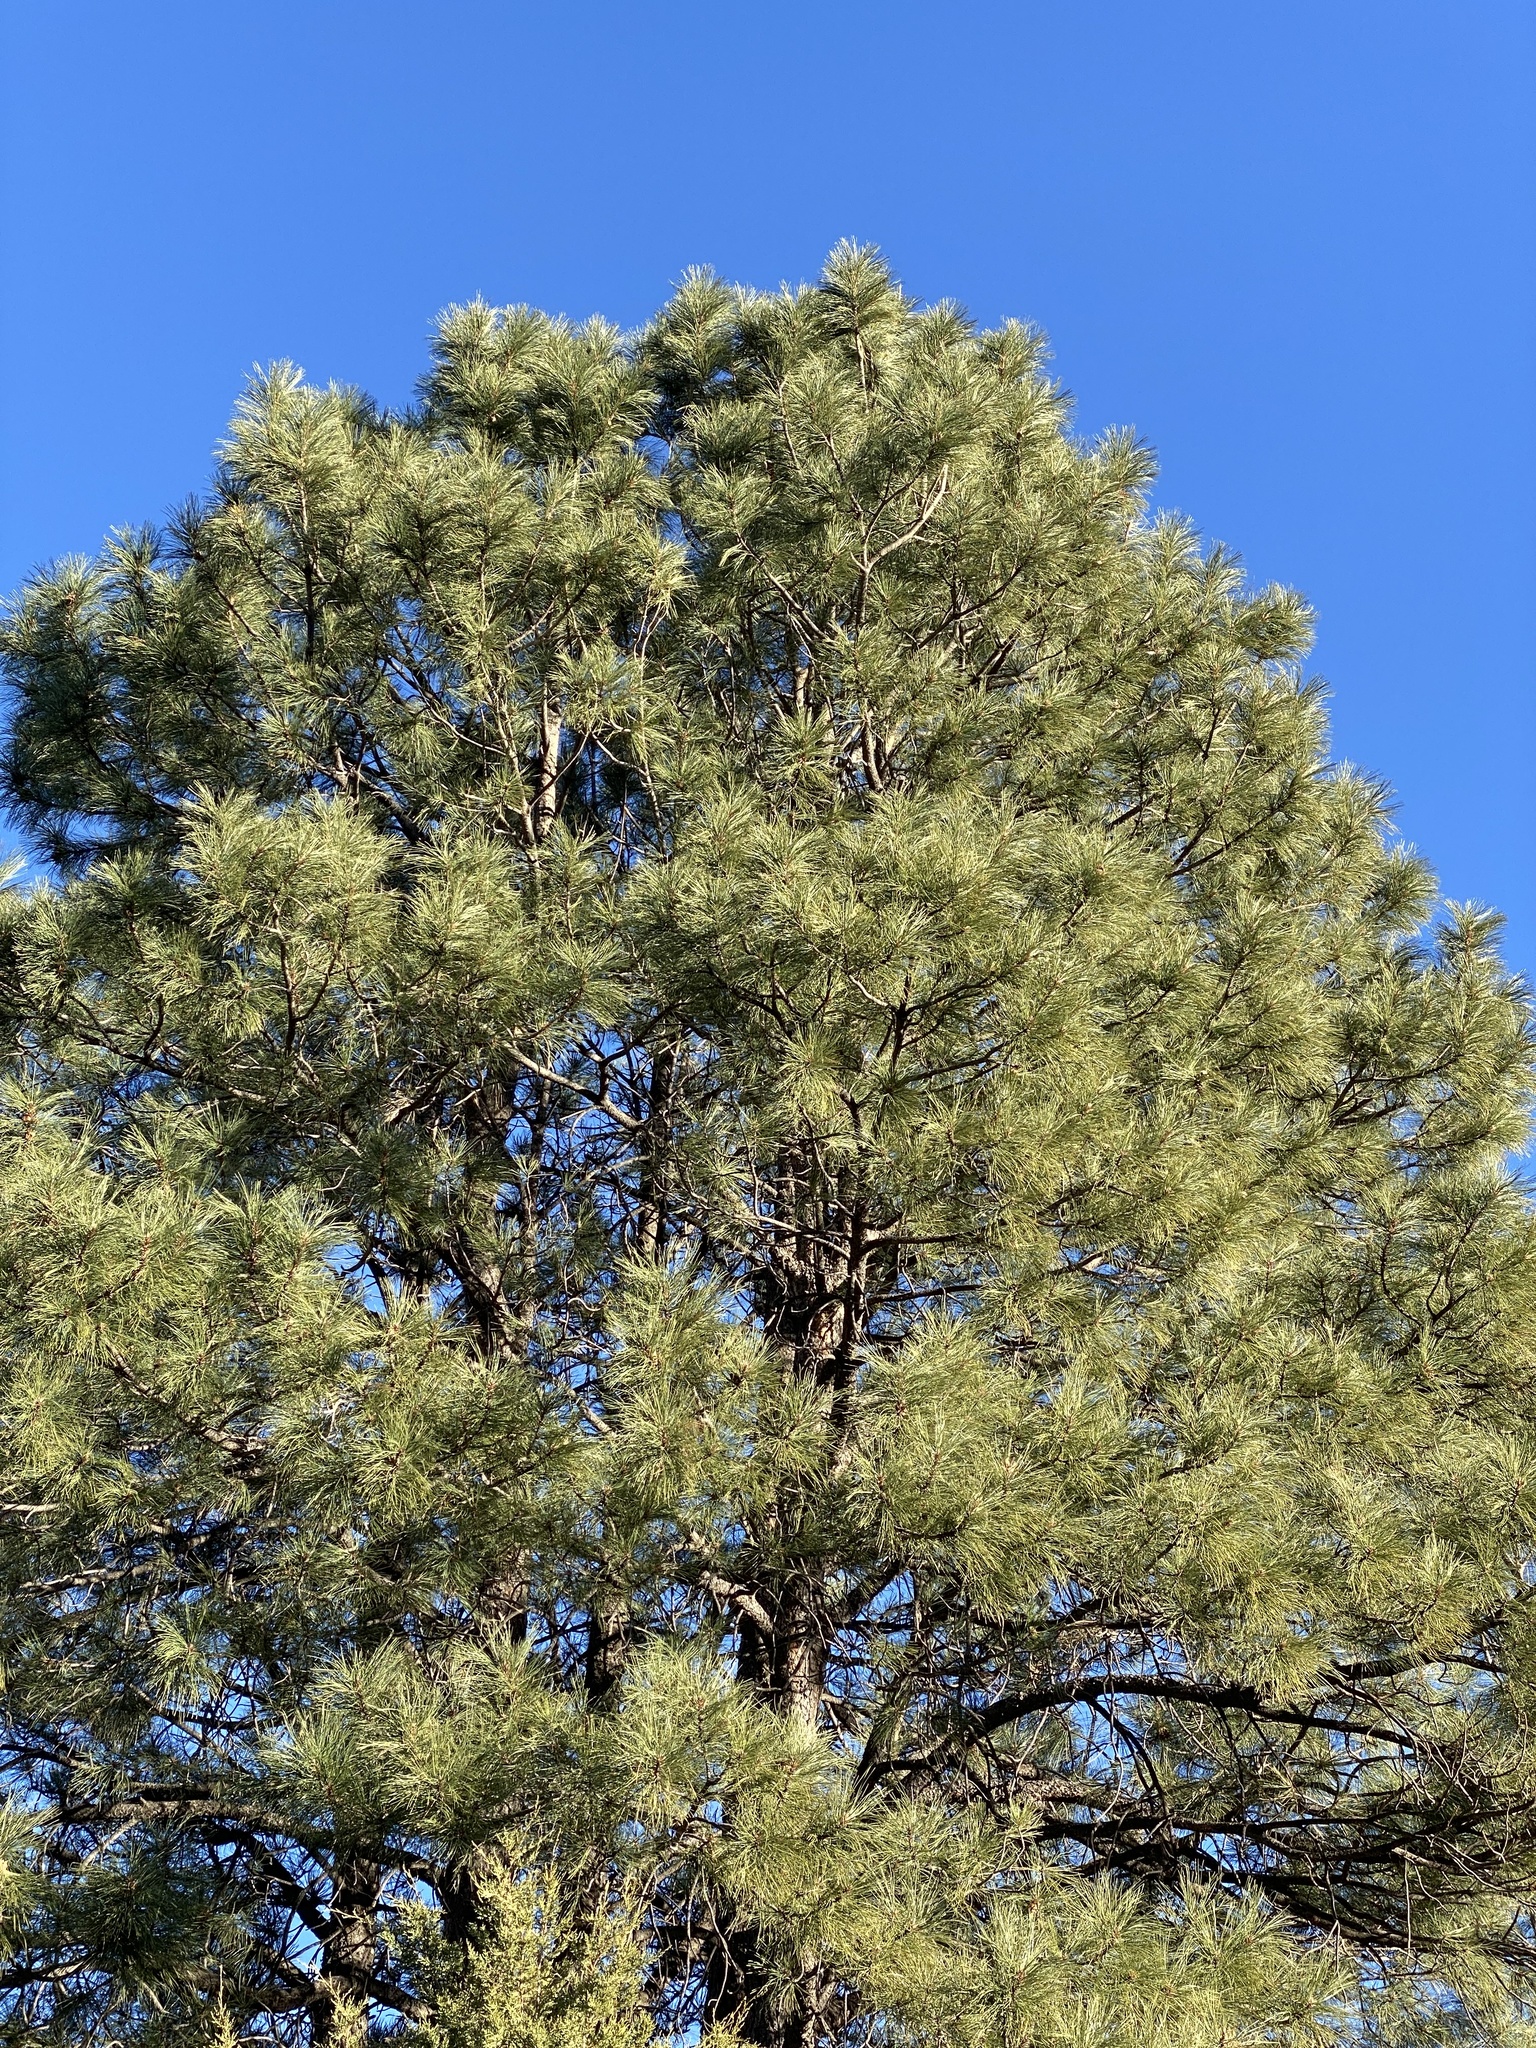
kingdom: Plantae
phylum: Tracheophyta
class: Pinopsida
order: Pinales
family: Pinaceae
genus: Pinus
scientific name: Pinus ponderosa
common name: Western yellow-pine
